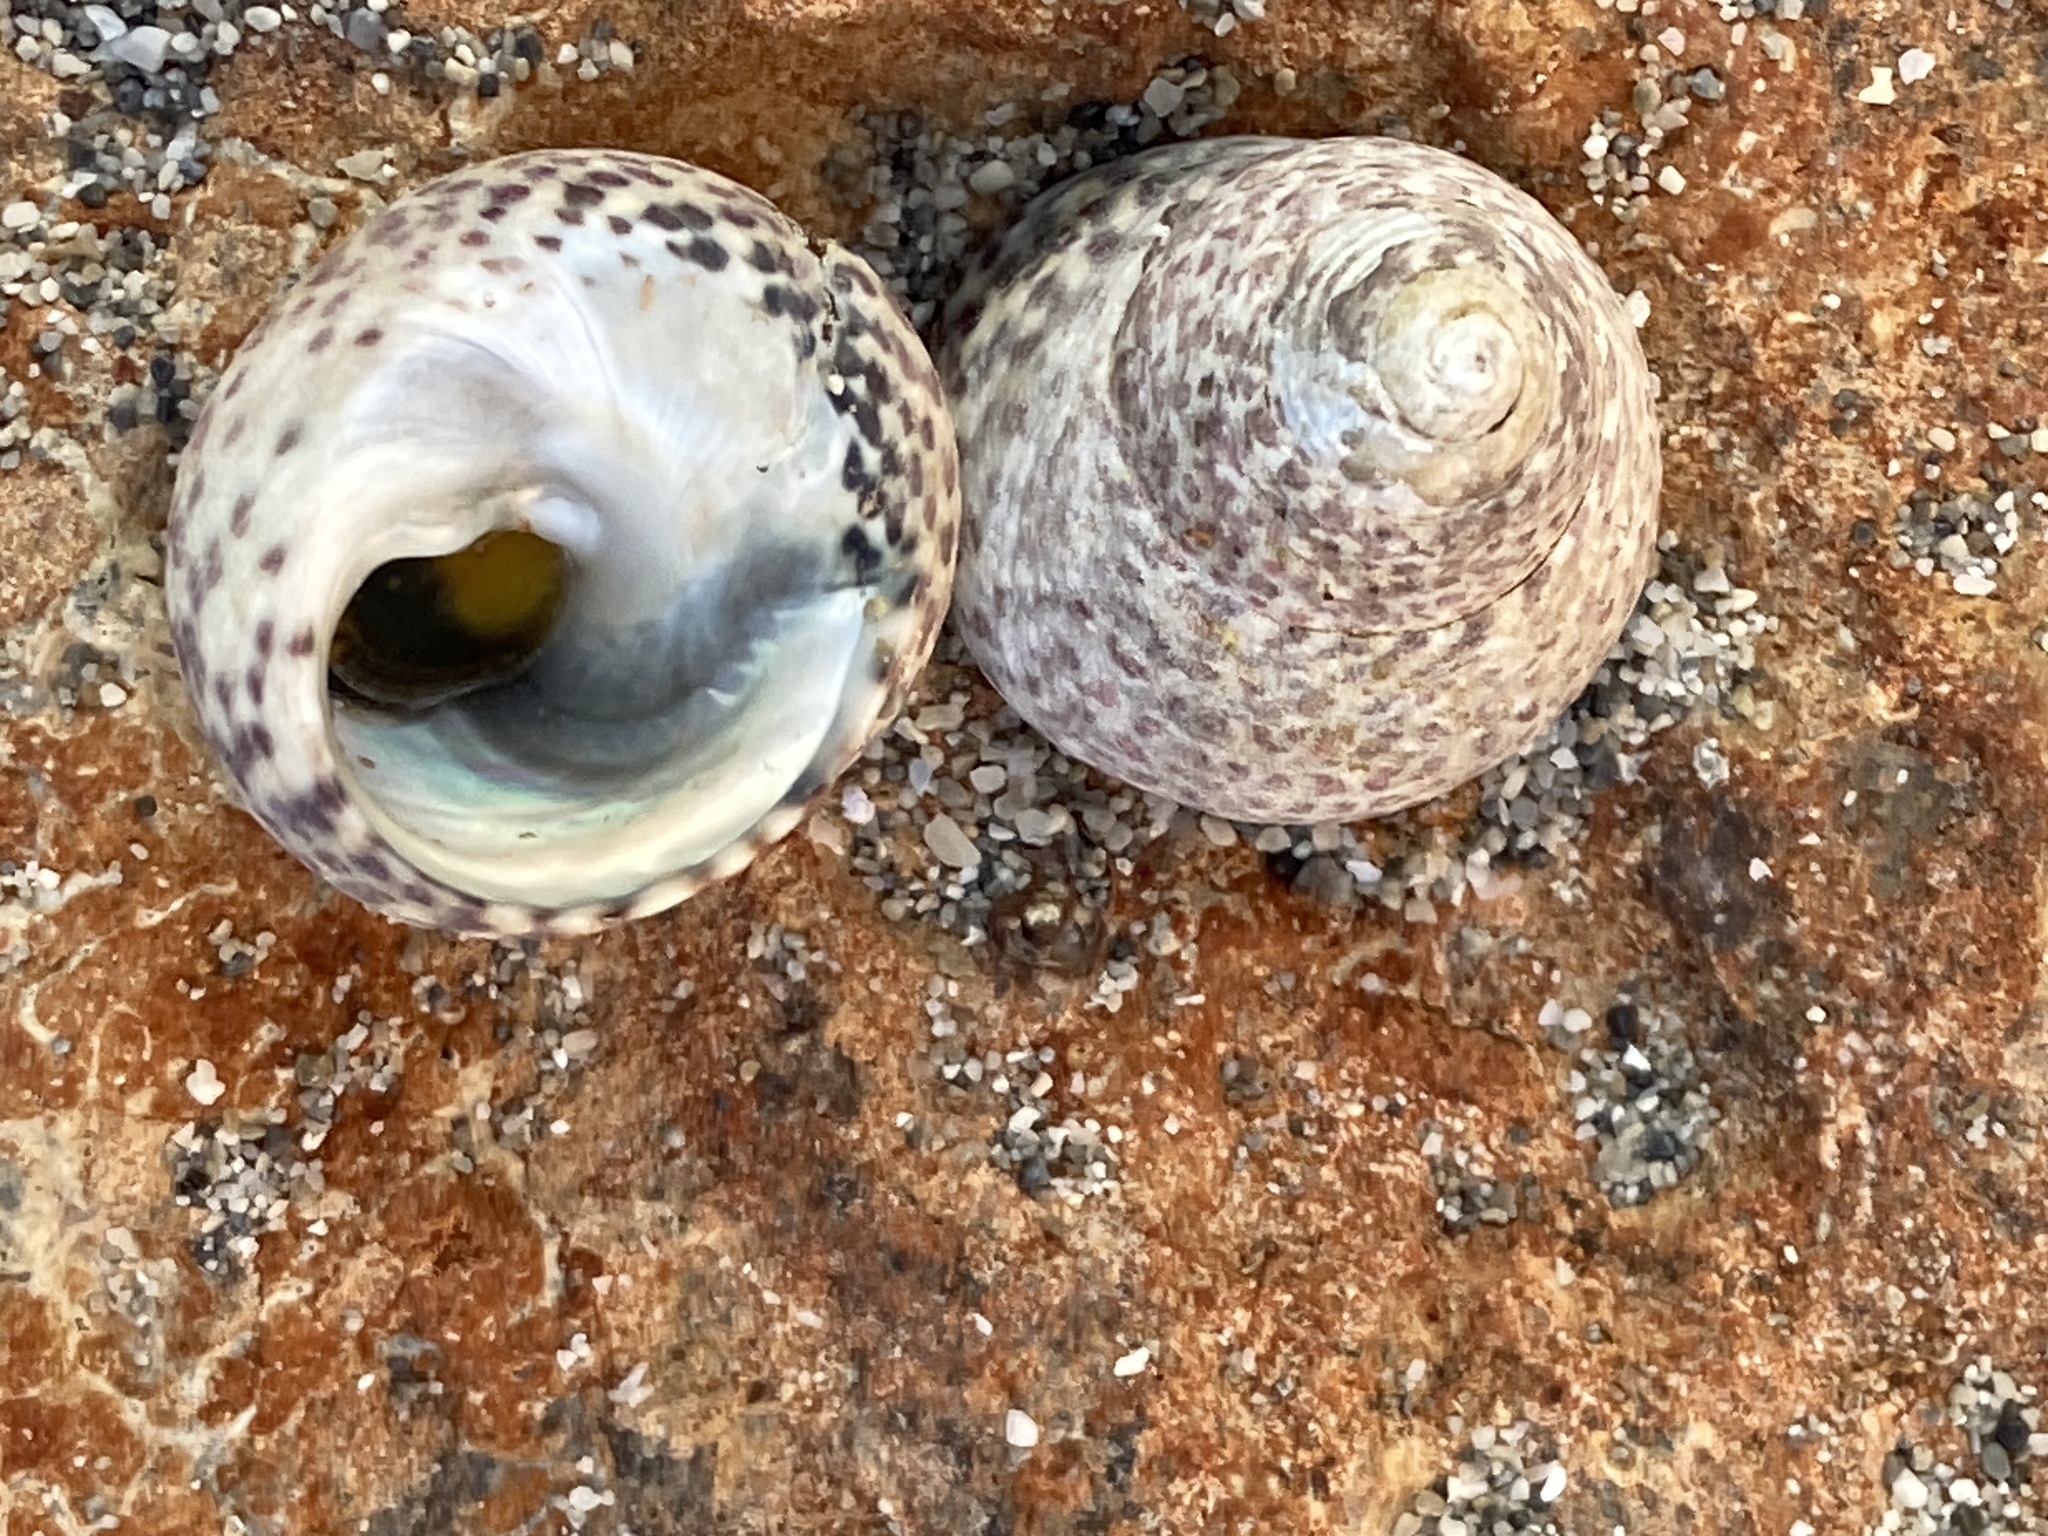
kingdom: Animalia
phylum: Mollusca
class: Gastropoda
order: Trochida
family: Trochidae
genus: Phorcus
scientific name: Phorcus turbinatus
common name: Turbinate monodont
